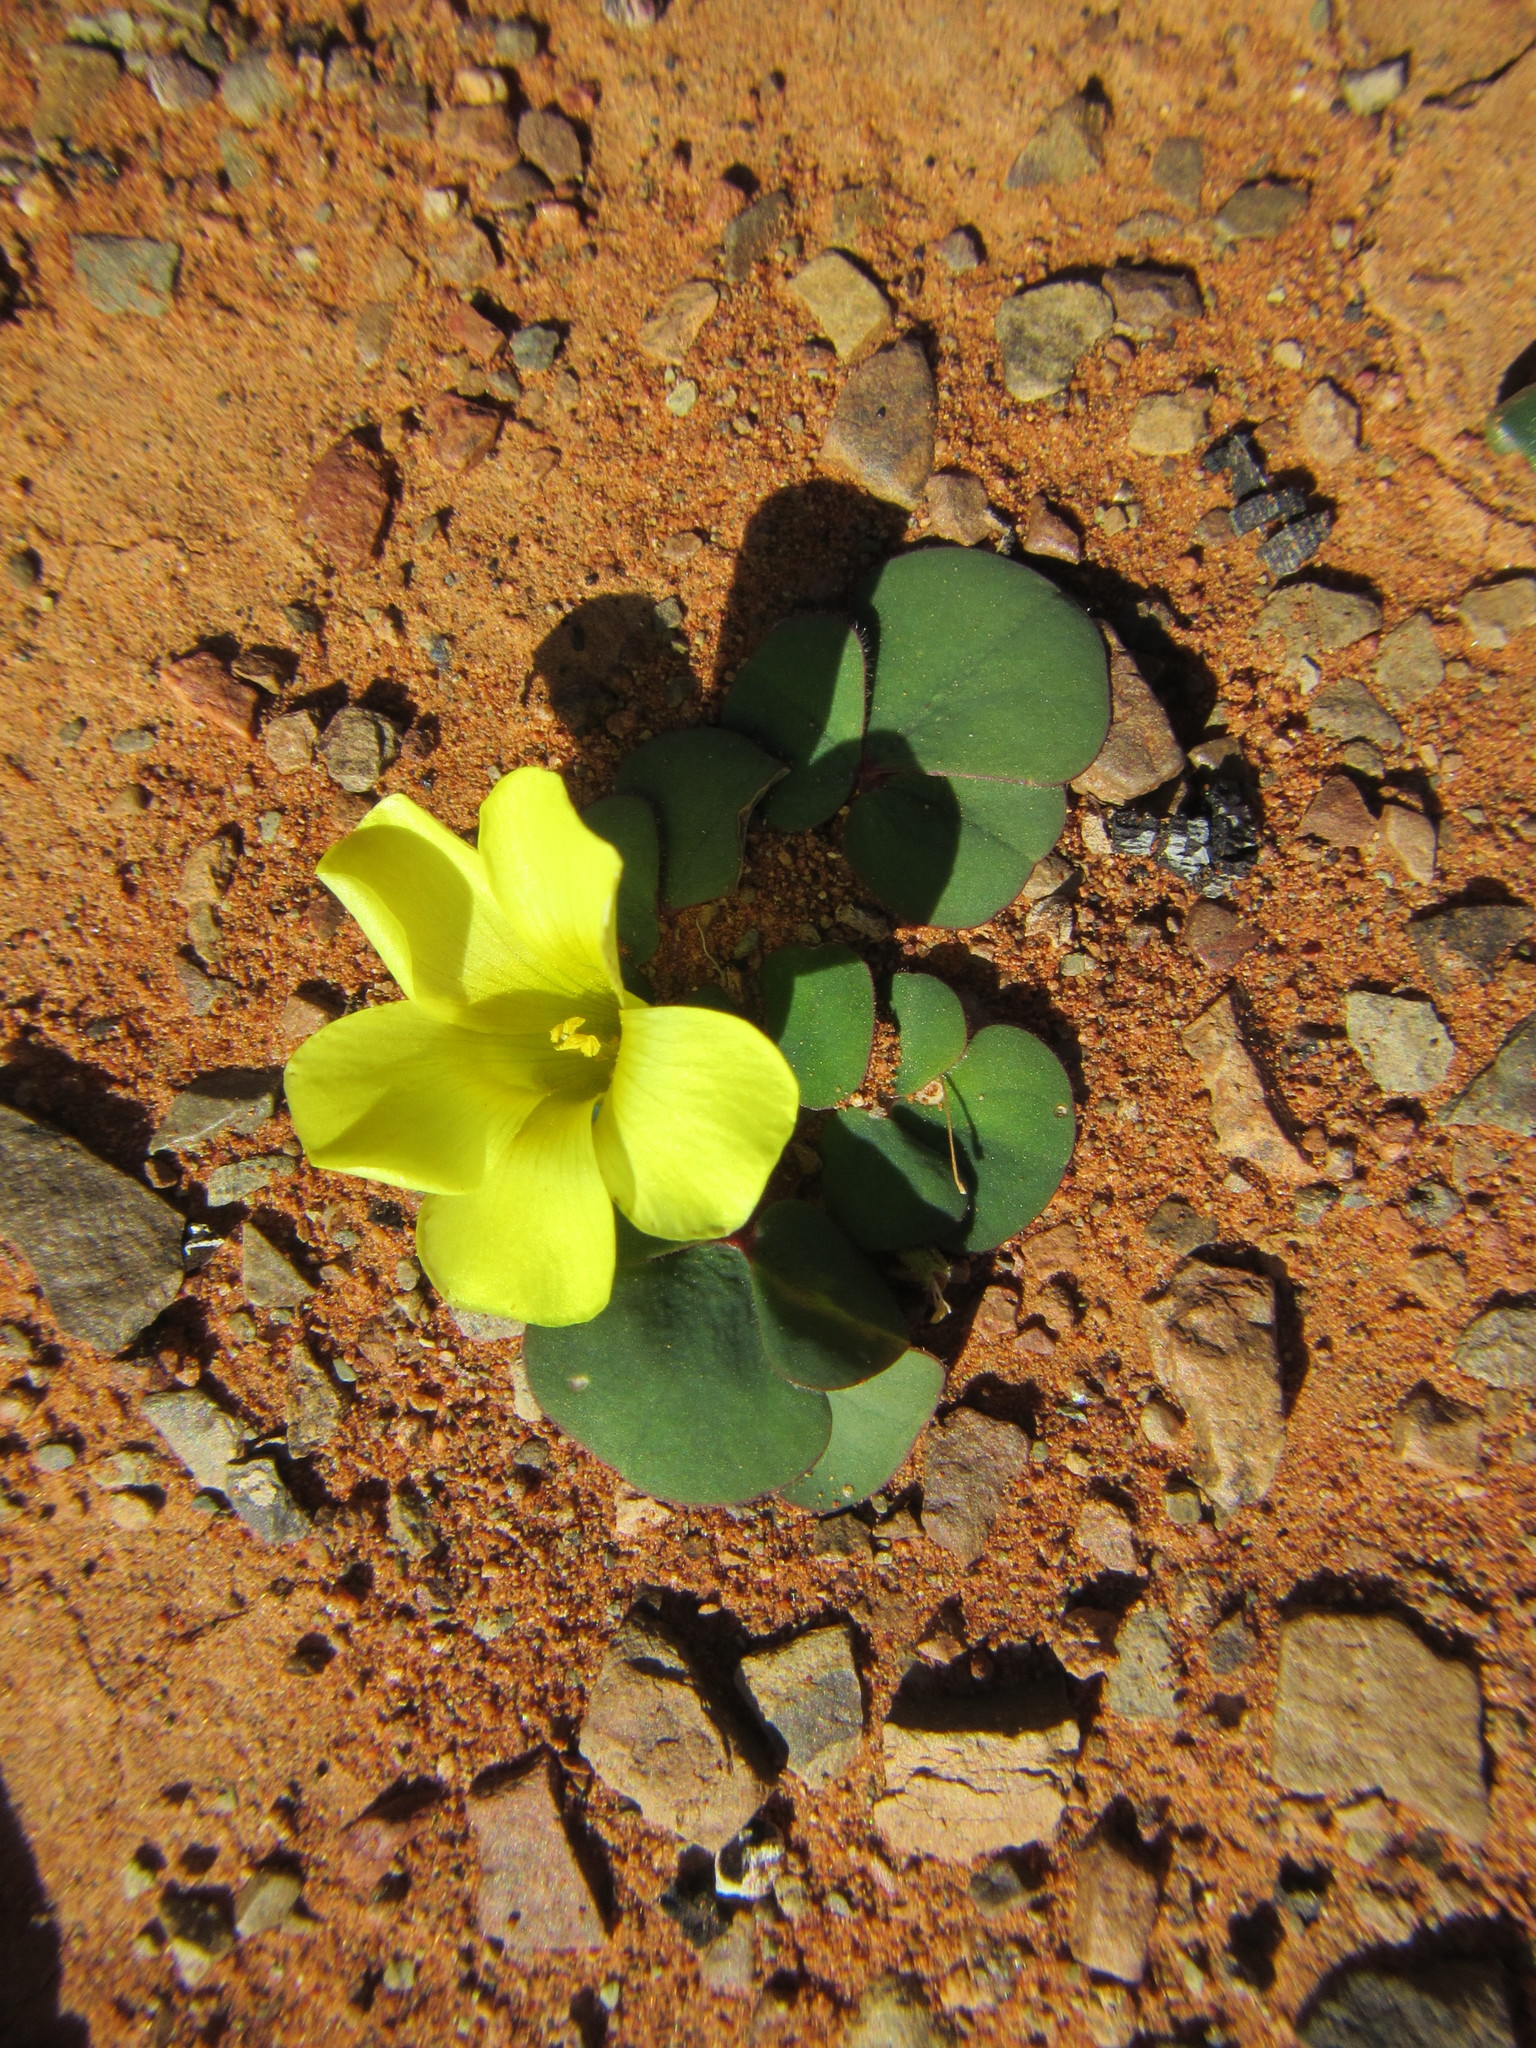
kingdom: Plantae
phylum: Tracheophyta
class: Magnoliopsida
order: Oxalidales
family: Oxalidaceae
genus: Oxalis
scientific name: Oxalis purpurea
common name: Purple woodsorrel
